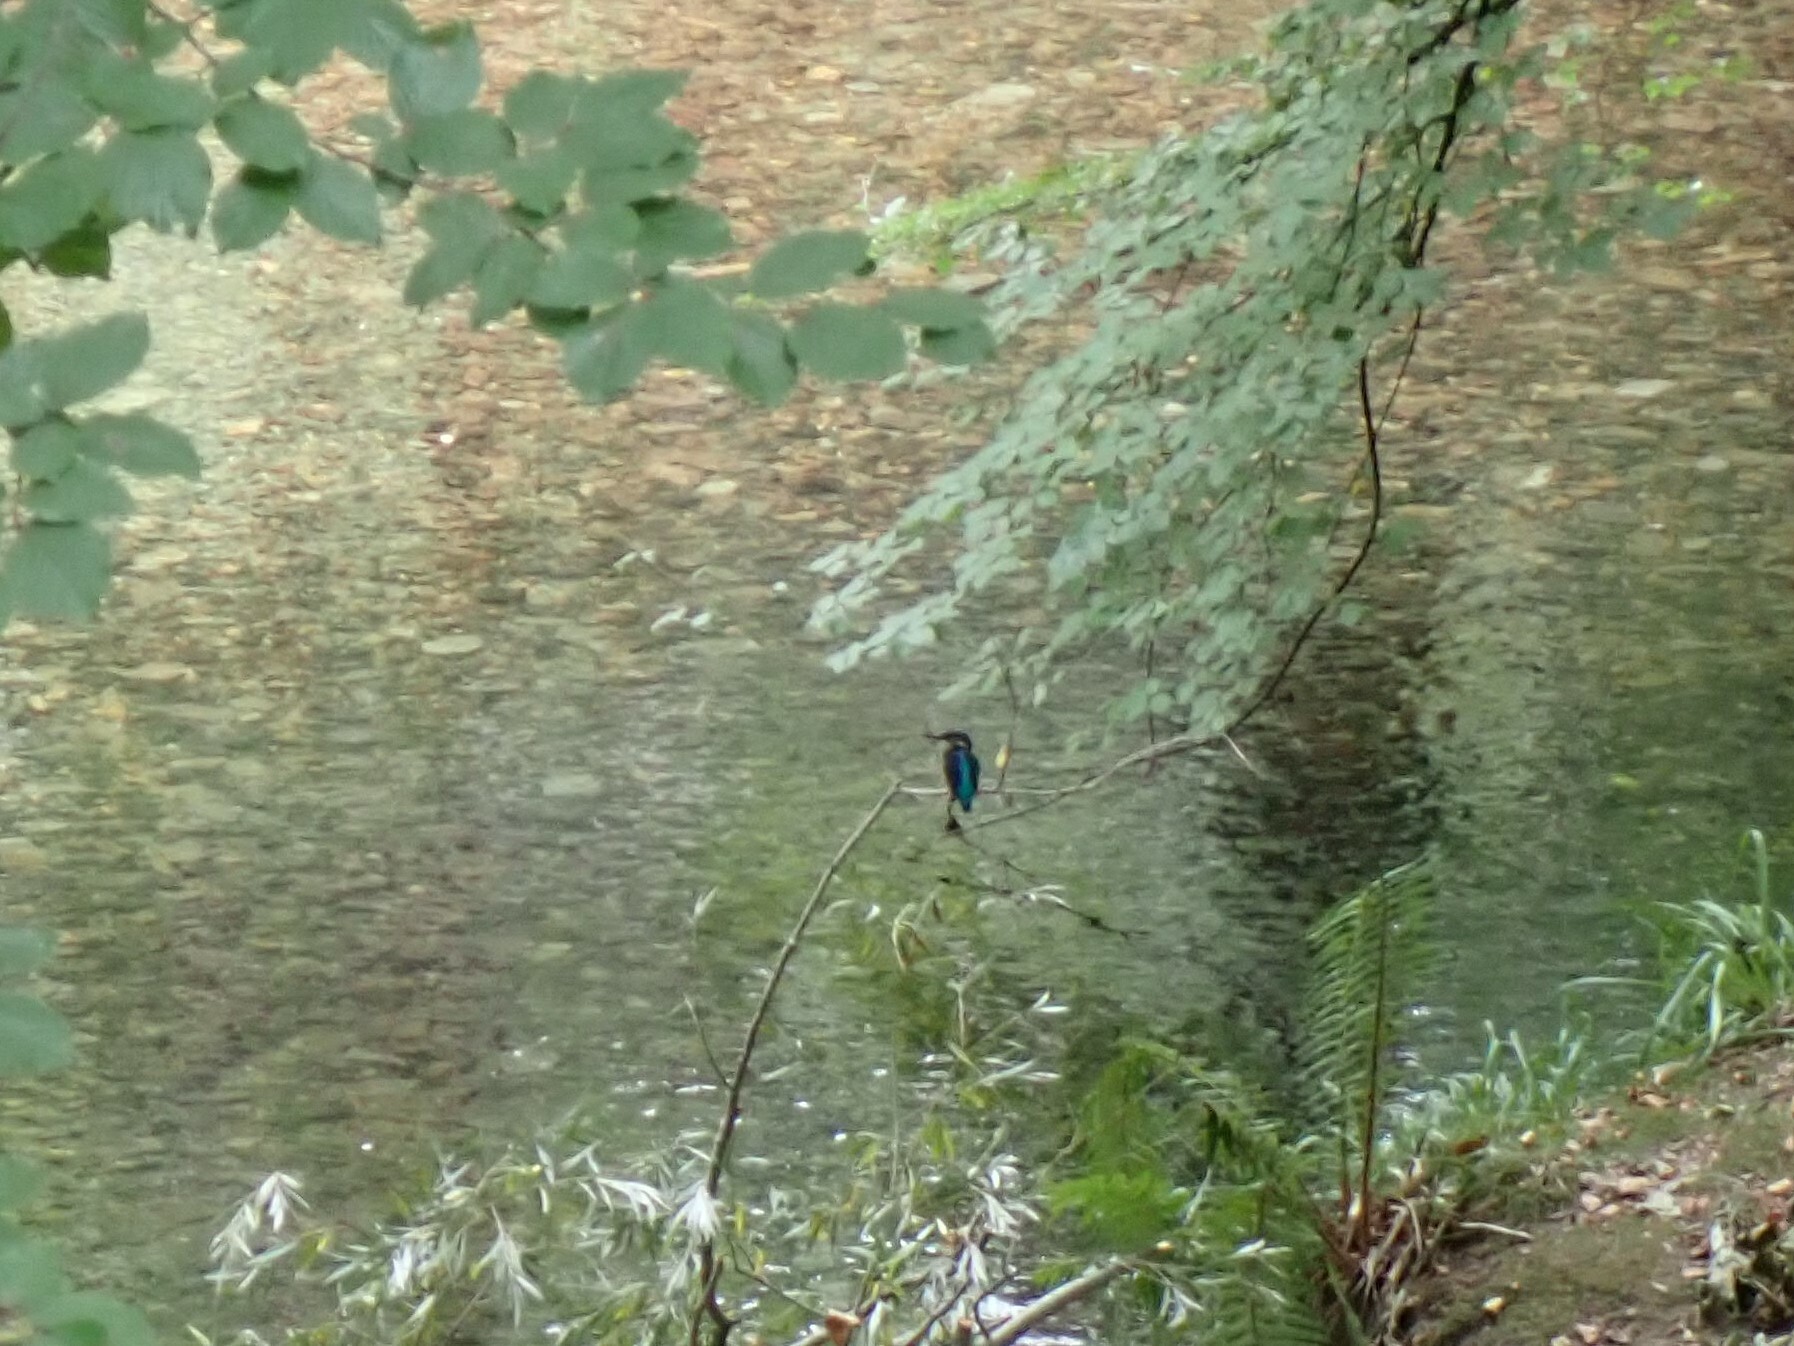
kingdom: Animalia
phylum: Chordata
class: Aves
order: Coraciiformes
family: Alcedinidae
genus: Alcedo
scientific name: Alcedo atthis
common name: Common kingfisher
